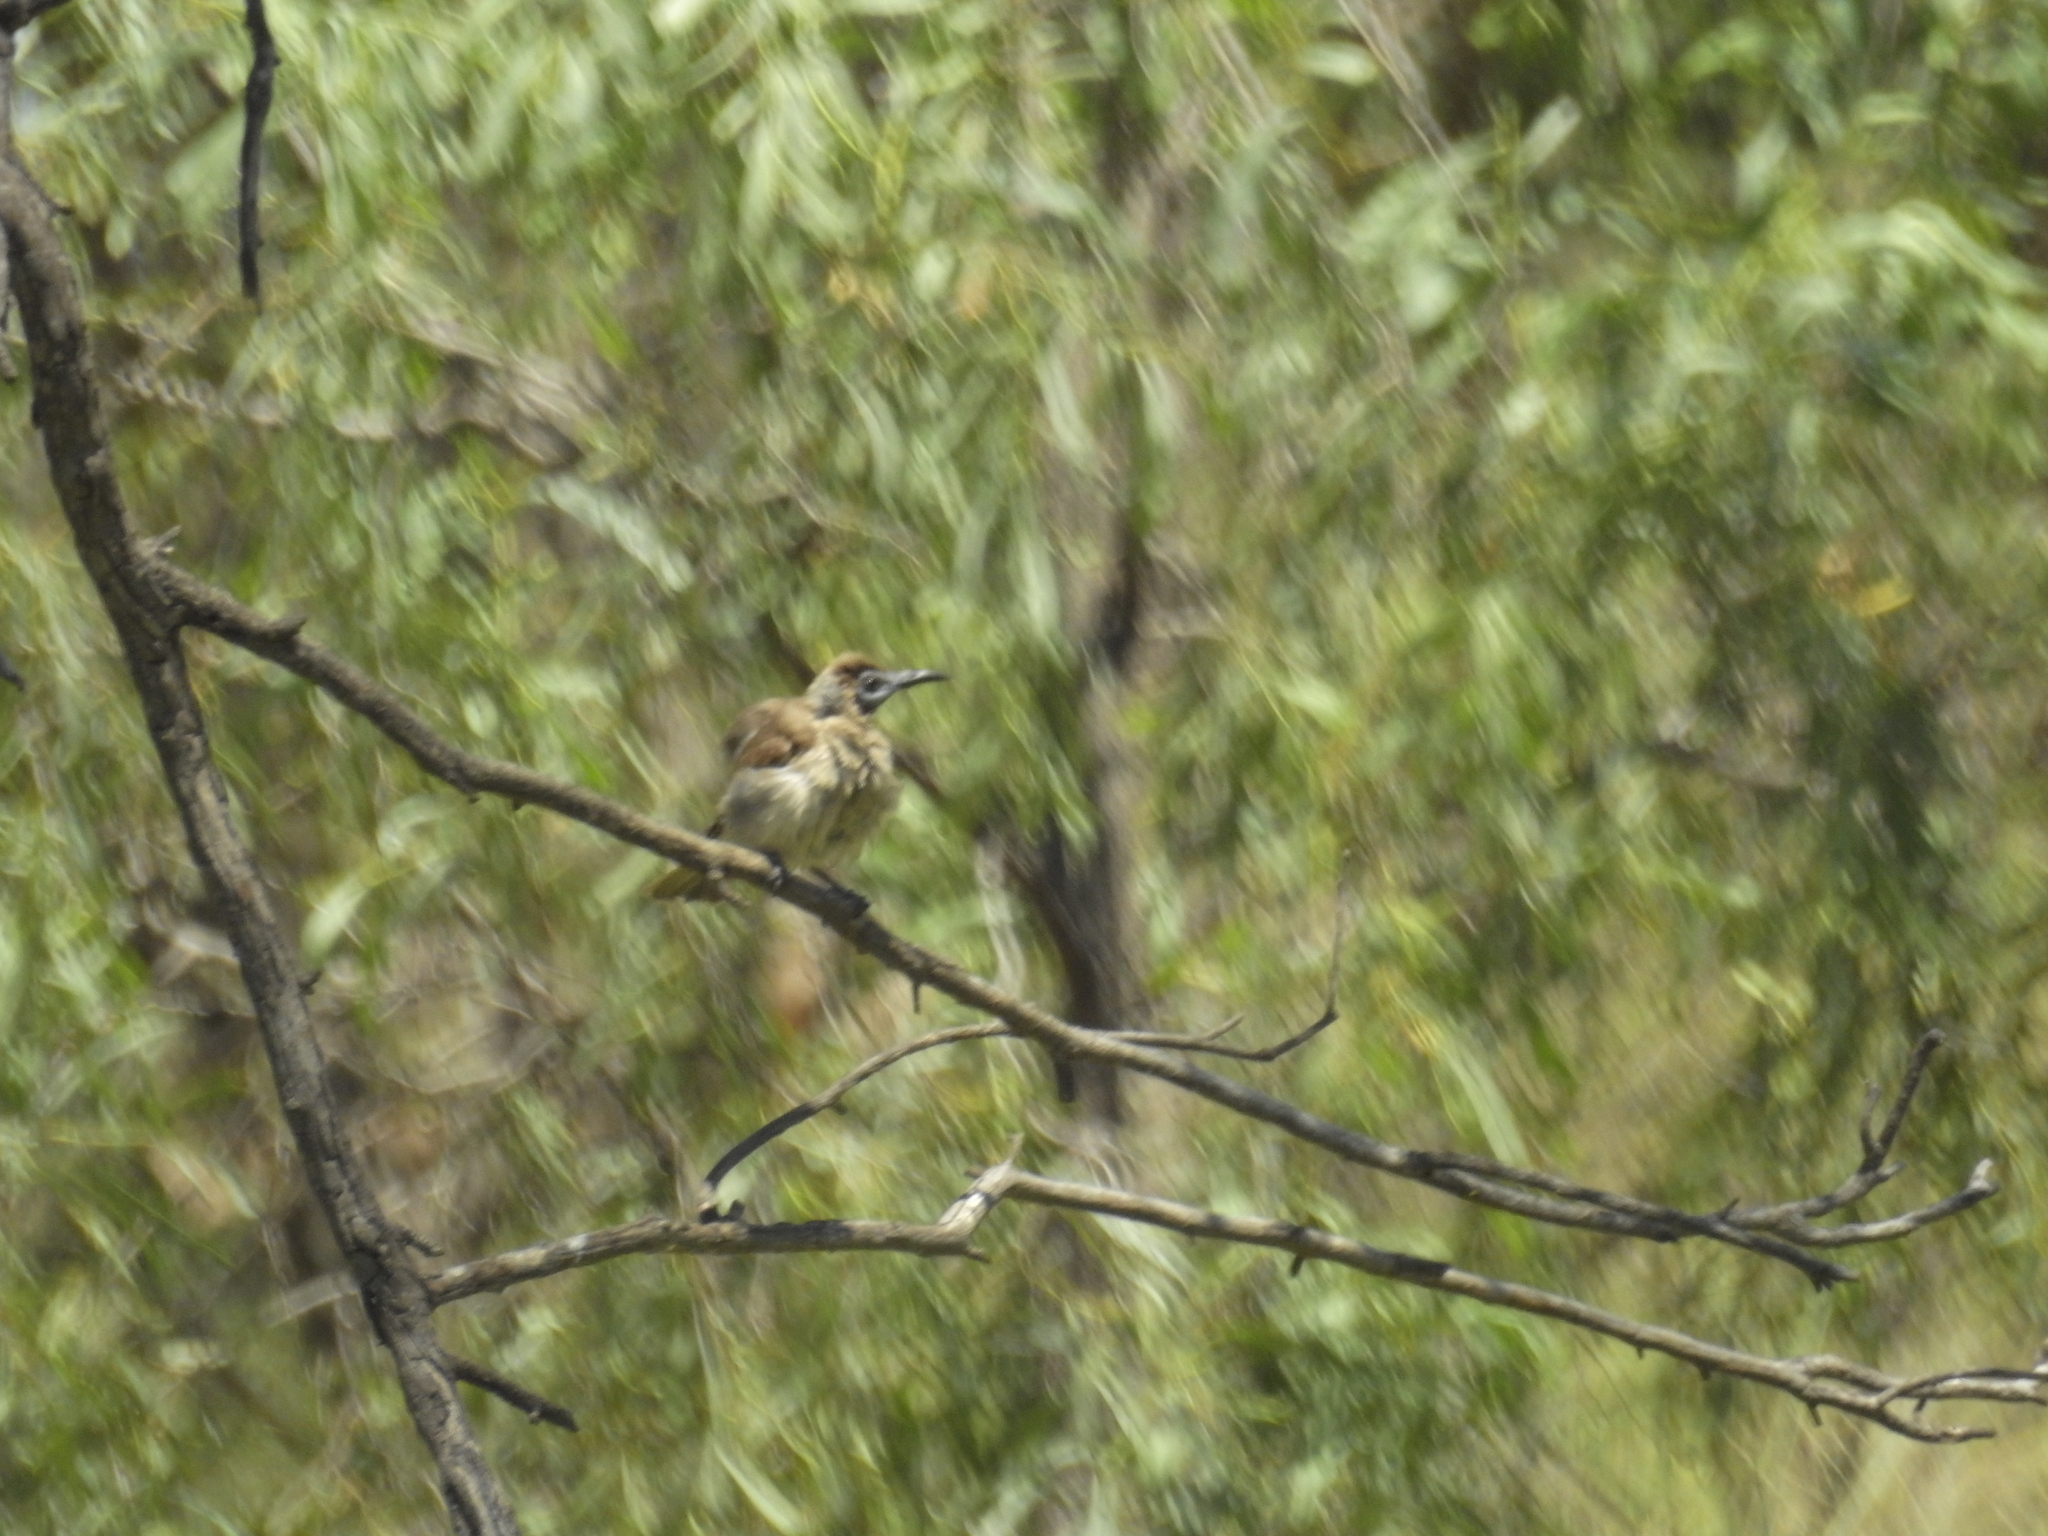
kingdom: Animalia
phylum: Chordata
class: Aves
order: Passeriformes
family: Meliphagidae
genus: Philemon
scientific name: Philemon citreogularis
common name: Little friarbird
